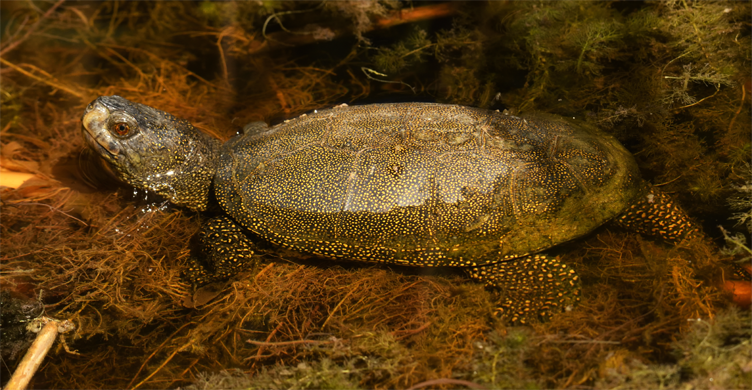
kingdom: Animalia
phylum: Chordata
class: Testudines
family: Emydidae
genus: Emys
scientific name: Emys orbicularis
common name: European pond turtle
